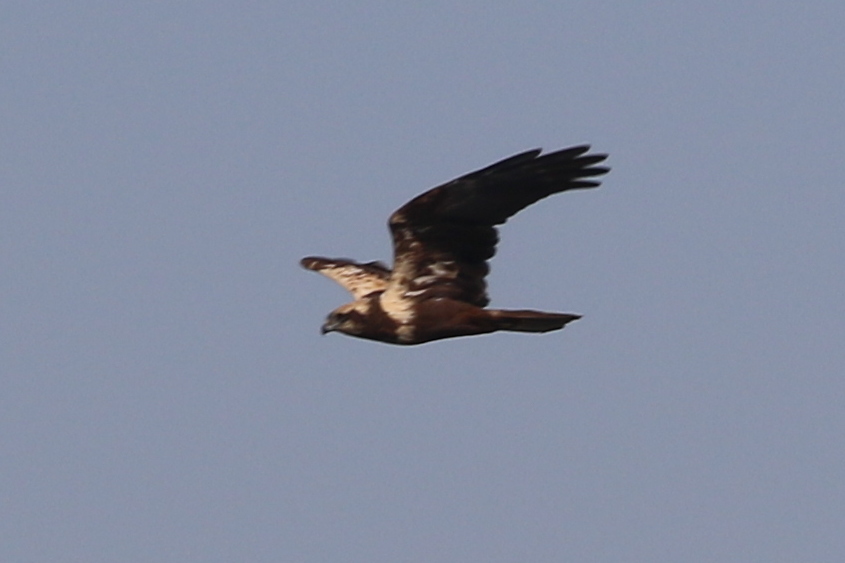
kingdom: Animalia
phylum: Chordata
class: Aves
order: Accipitriformes
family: Accipitridae
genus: Circus
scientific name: Circus aeruginosus
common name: Western marsh harrier
